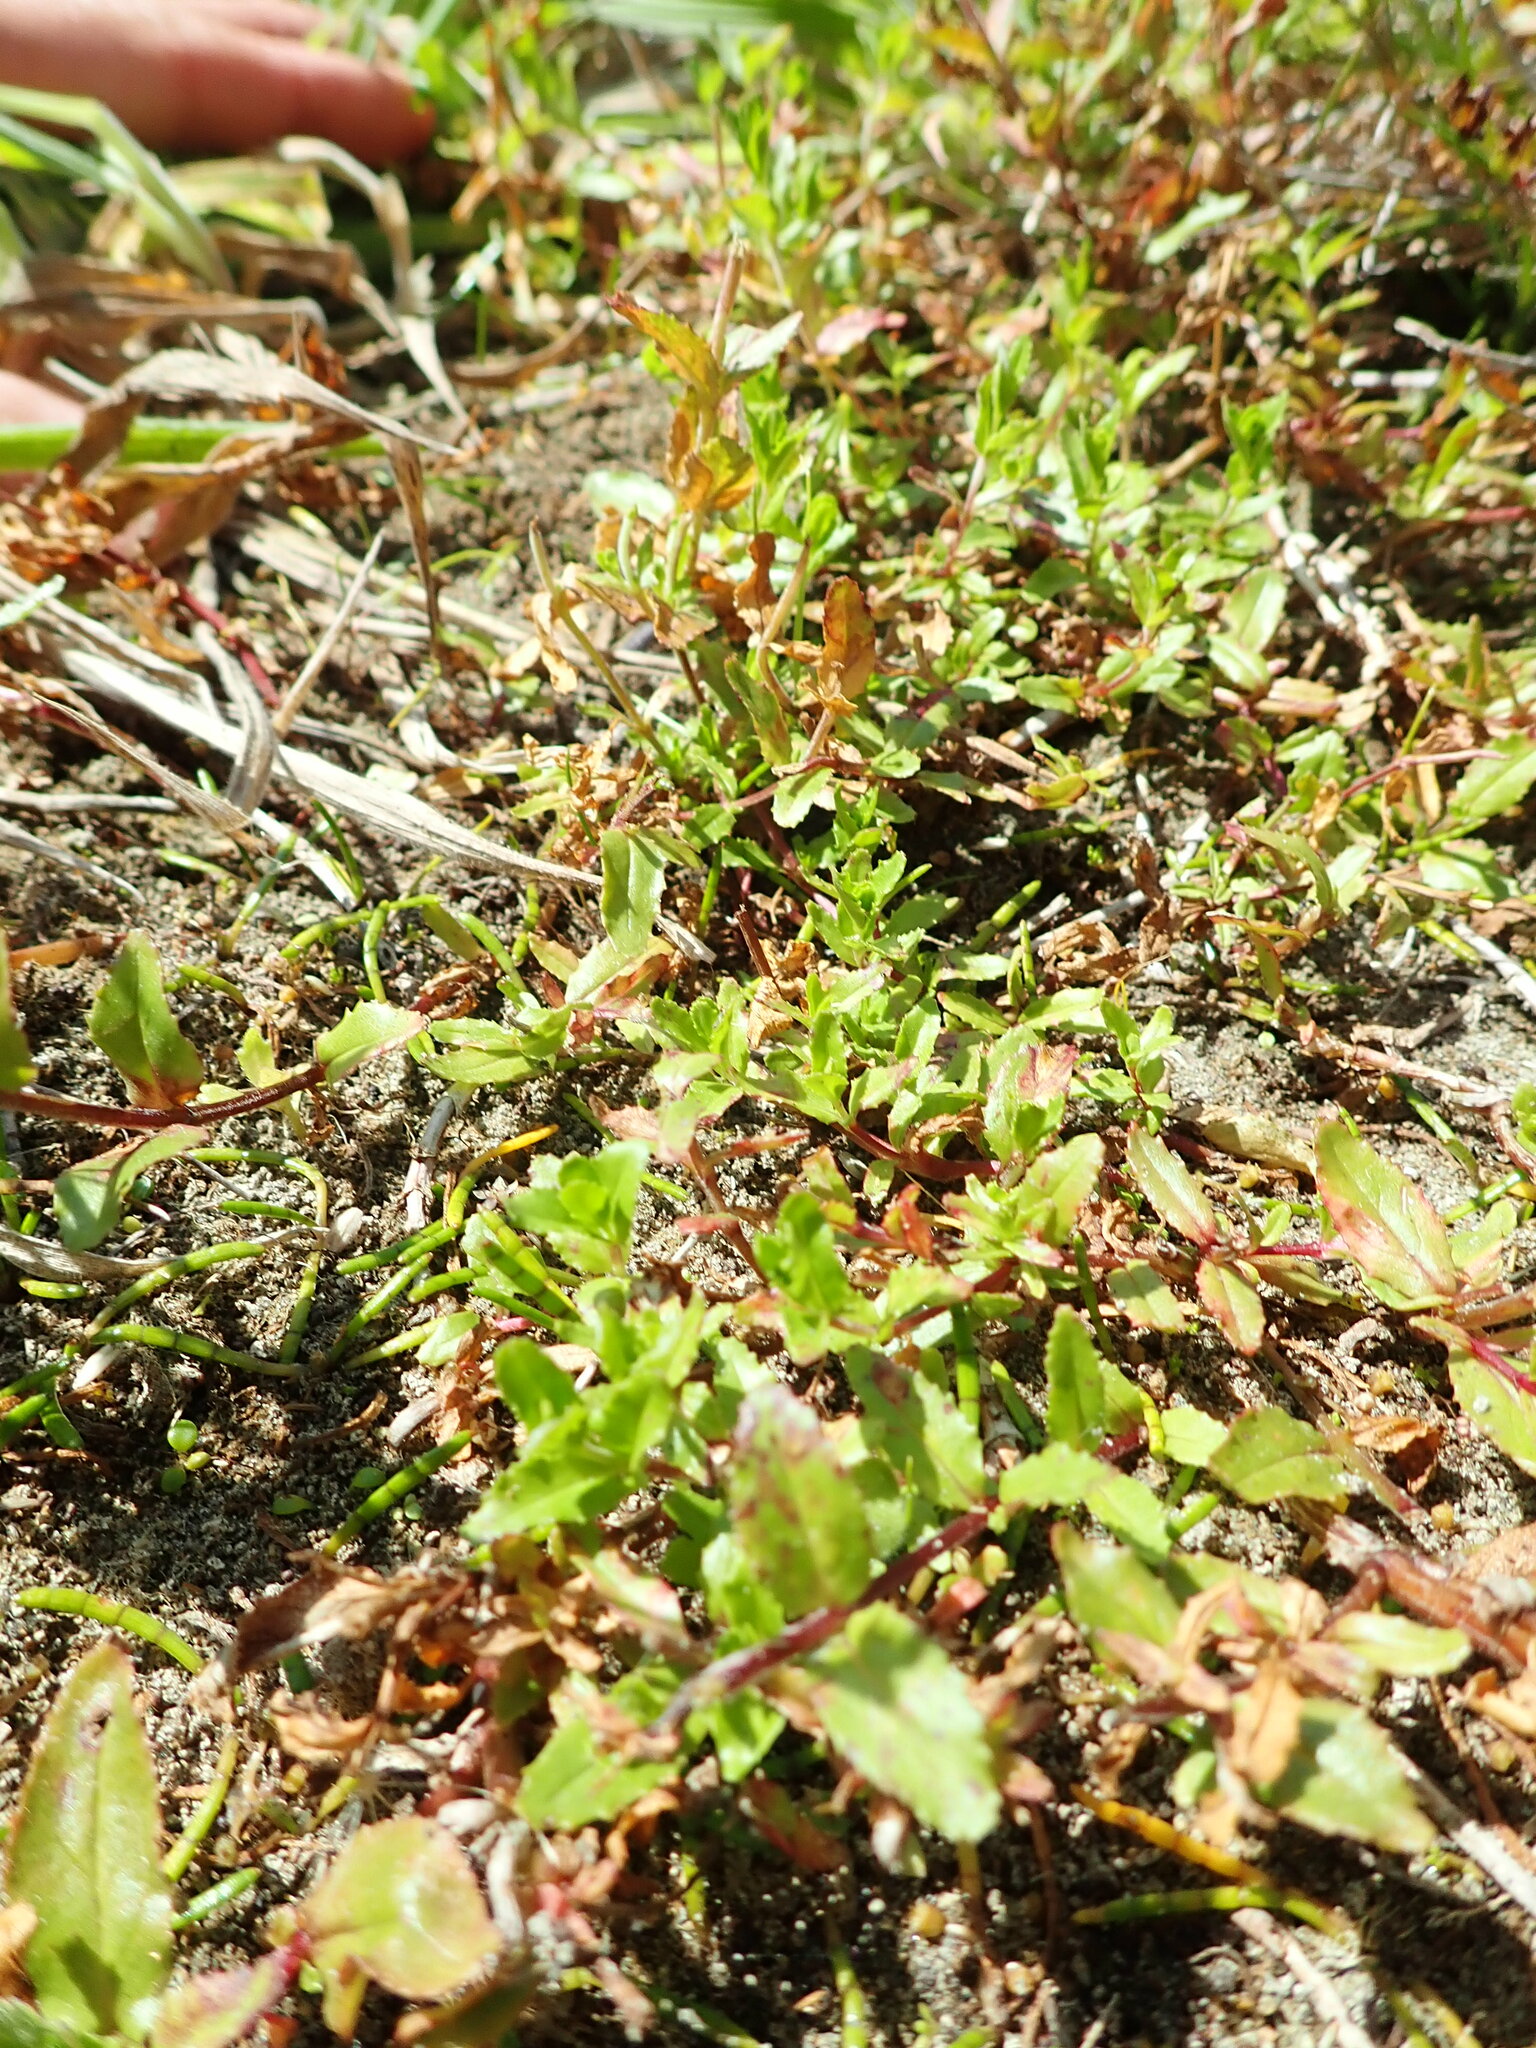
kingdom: Plantae
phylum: Tracheophyta
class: Magnoliopsida
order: Myrtales
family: Onagraceae
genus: Epilobium
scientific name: Epilobium billardiereanum
